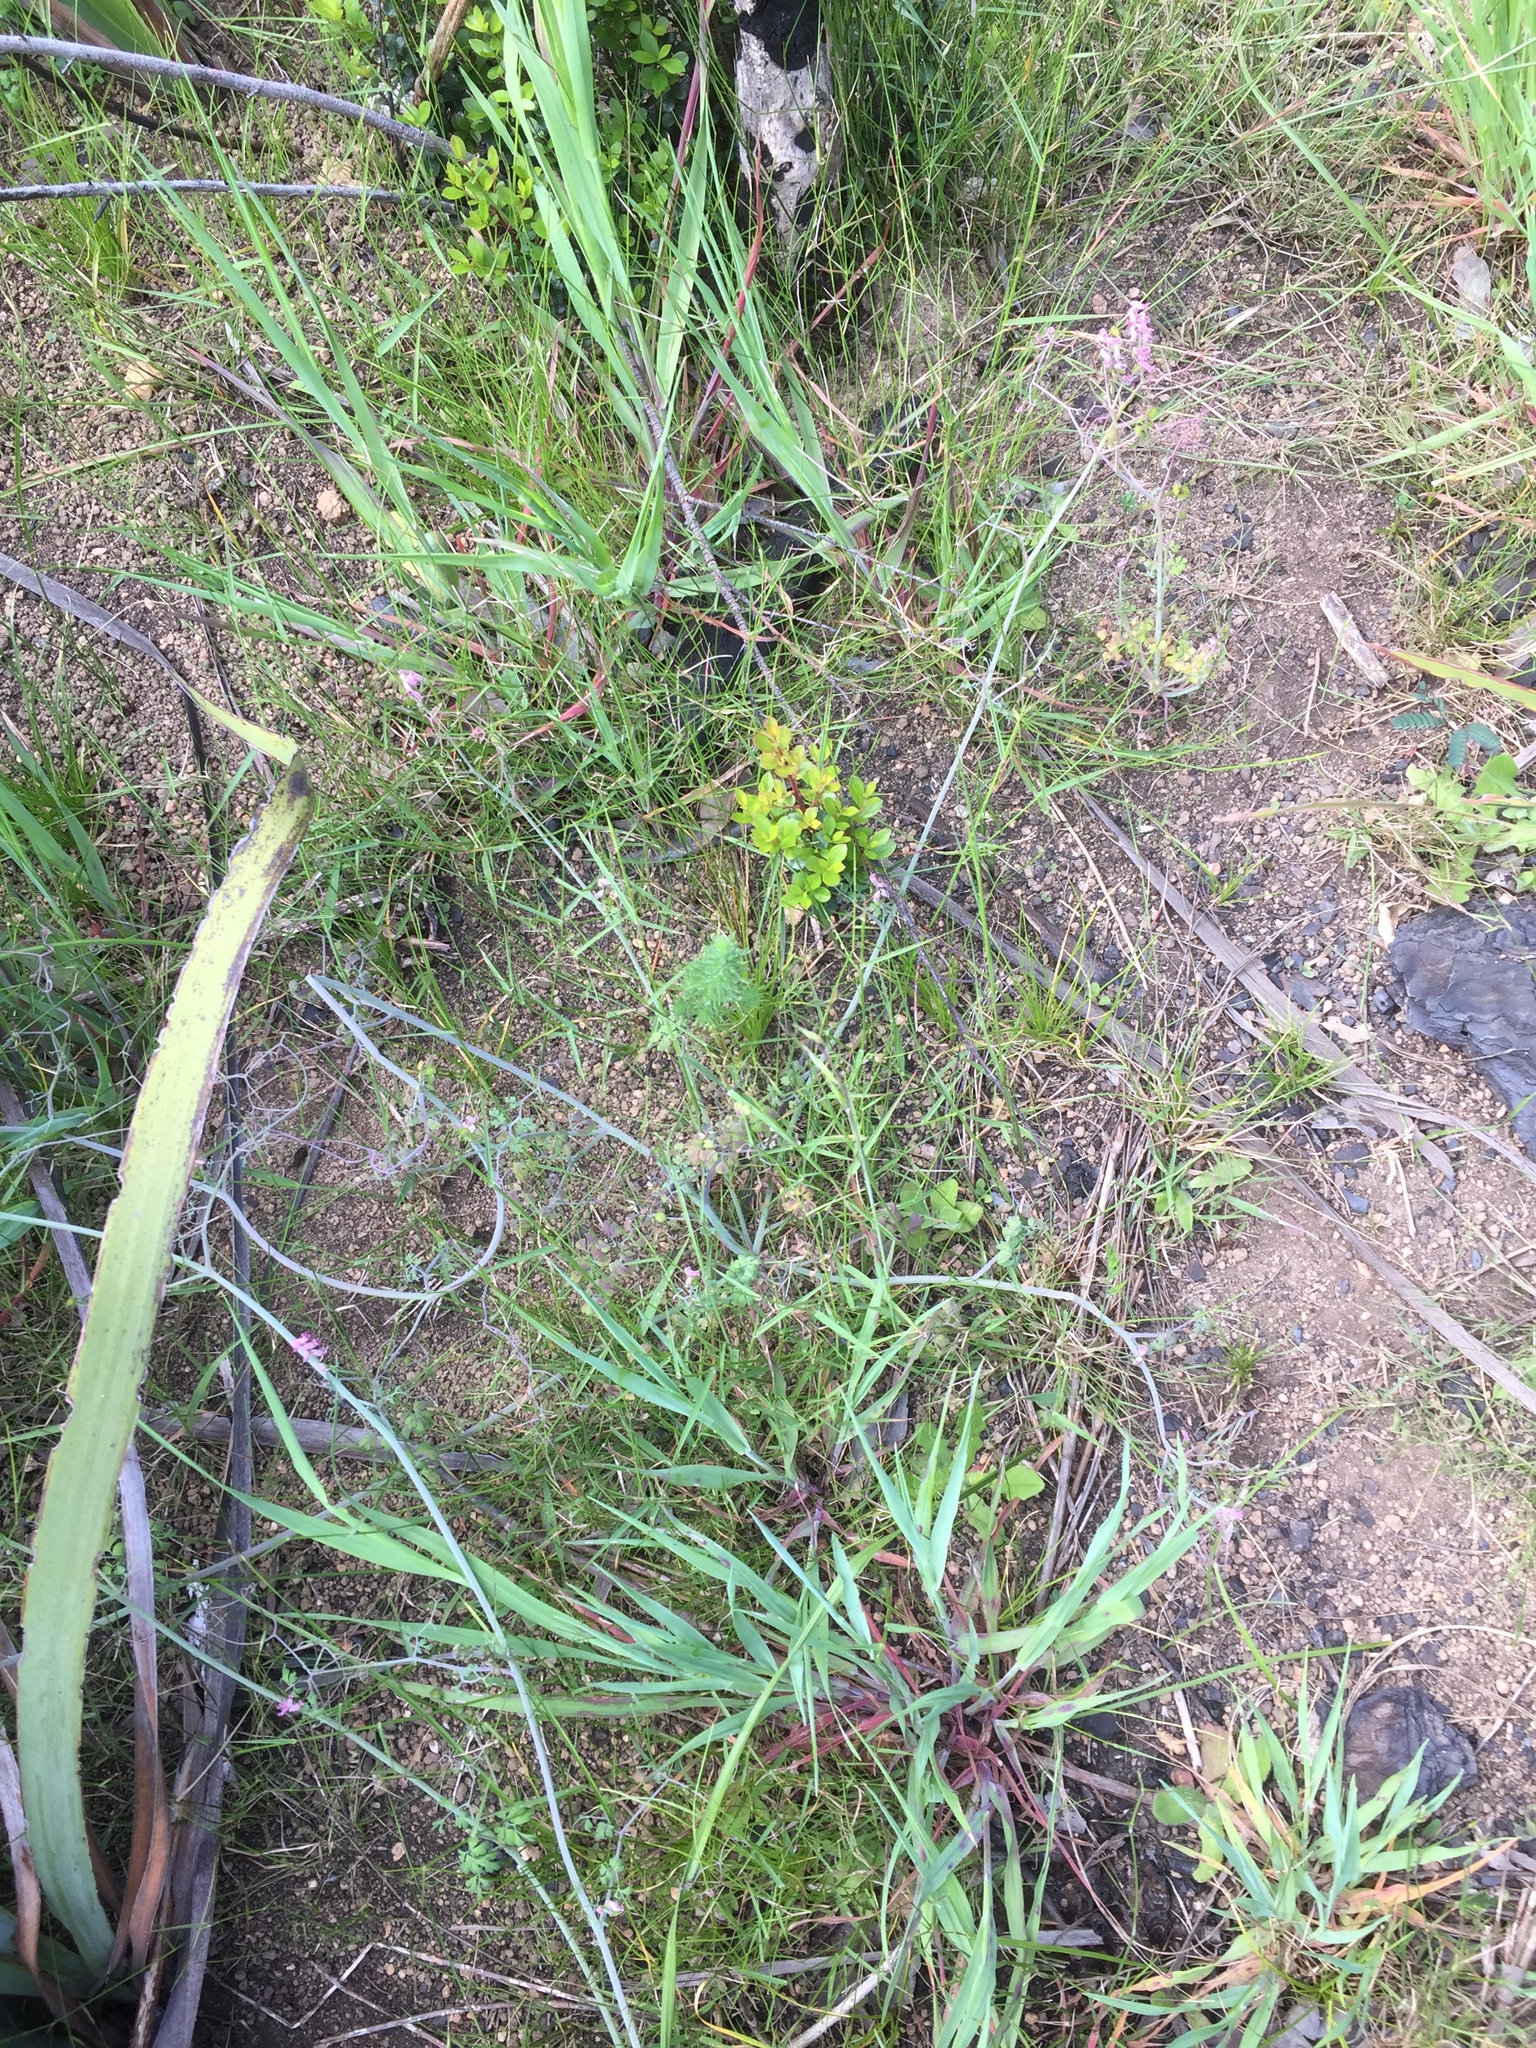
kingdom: Plantae
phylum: Tracheophyta
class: Magnoliopsida
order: Ranunculales
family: Papaveraceae
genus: Discocapnos
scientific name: Discocapnos mundti
